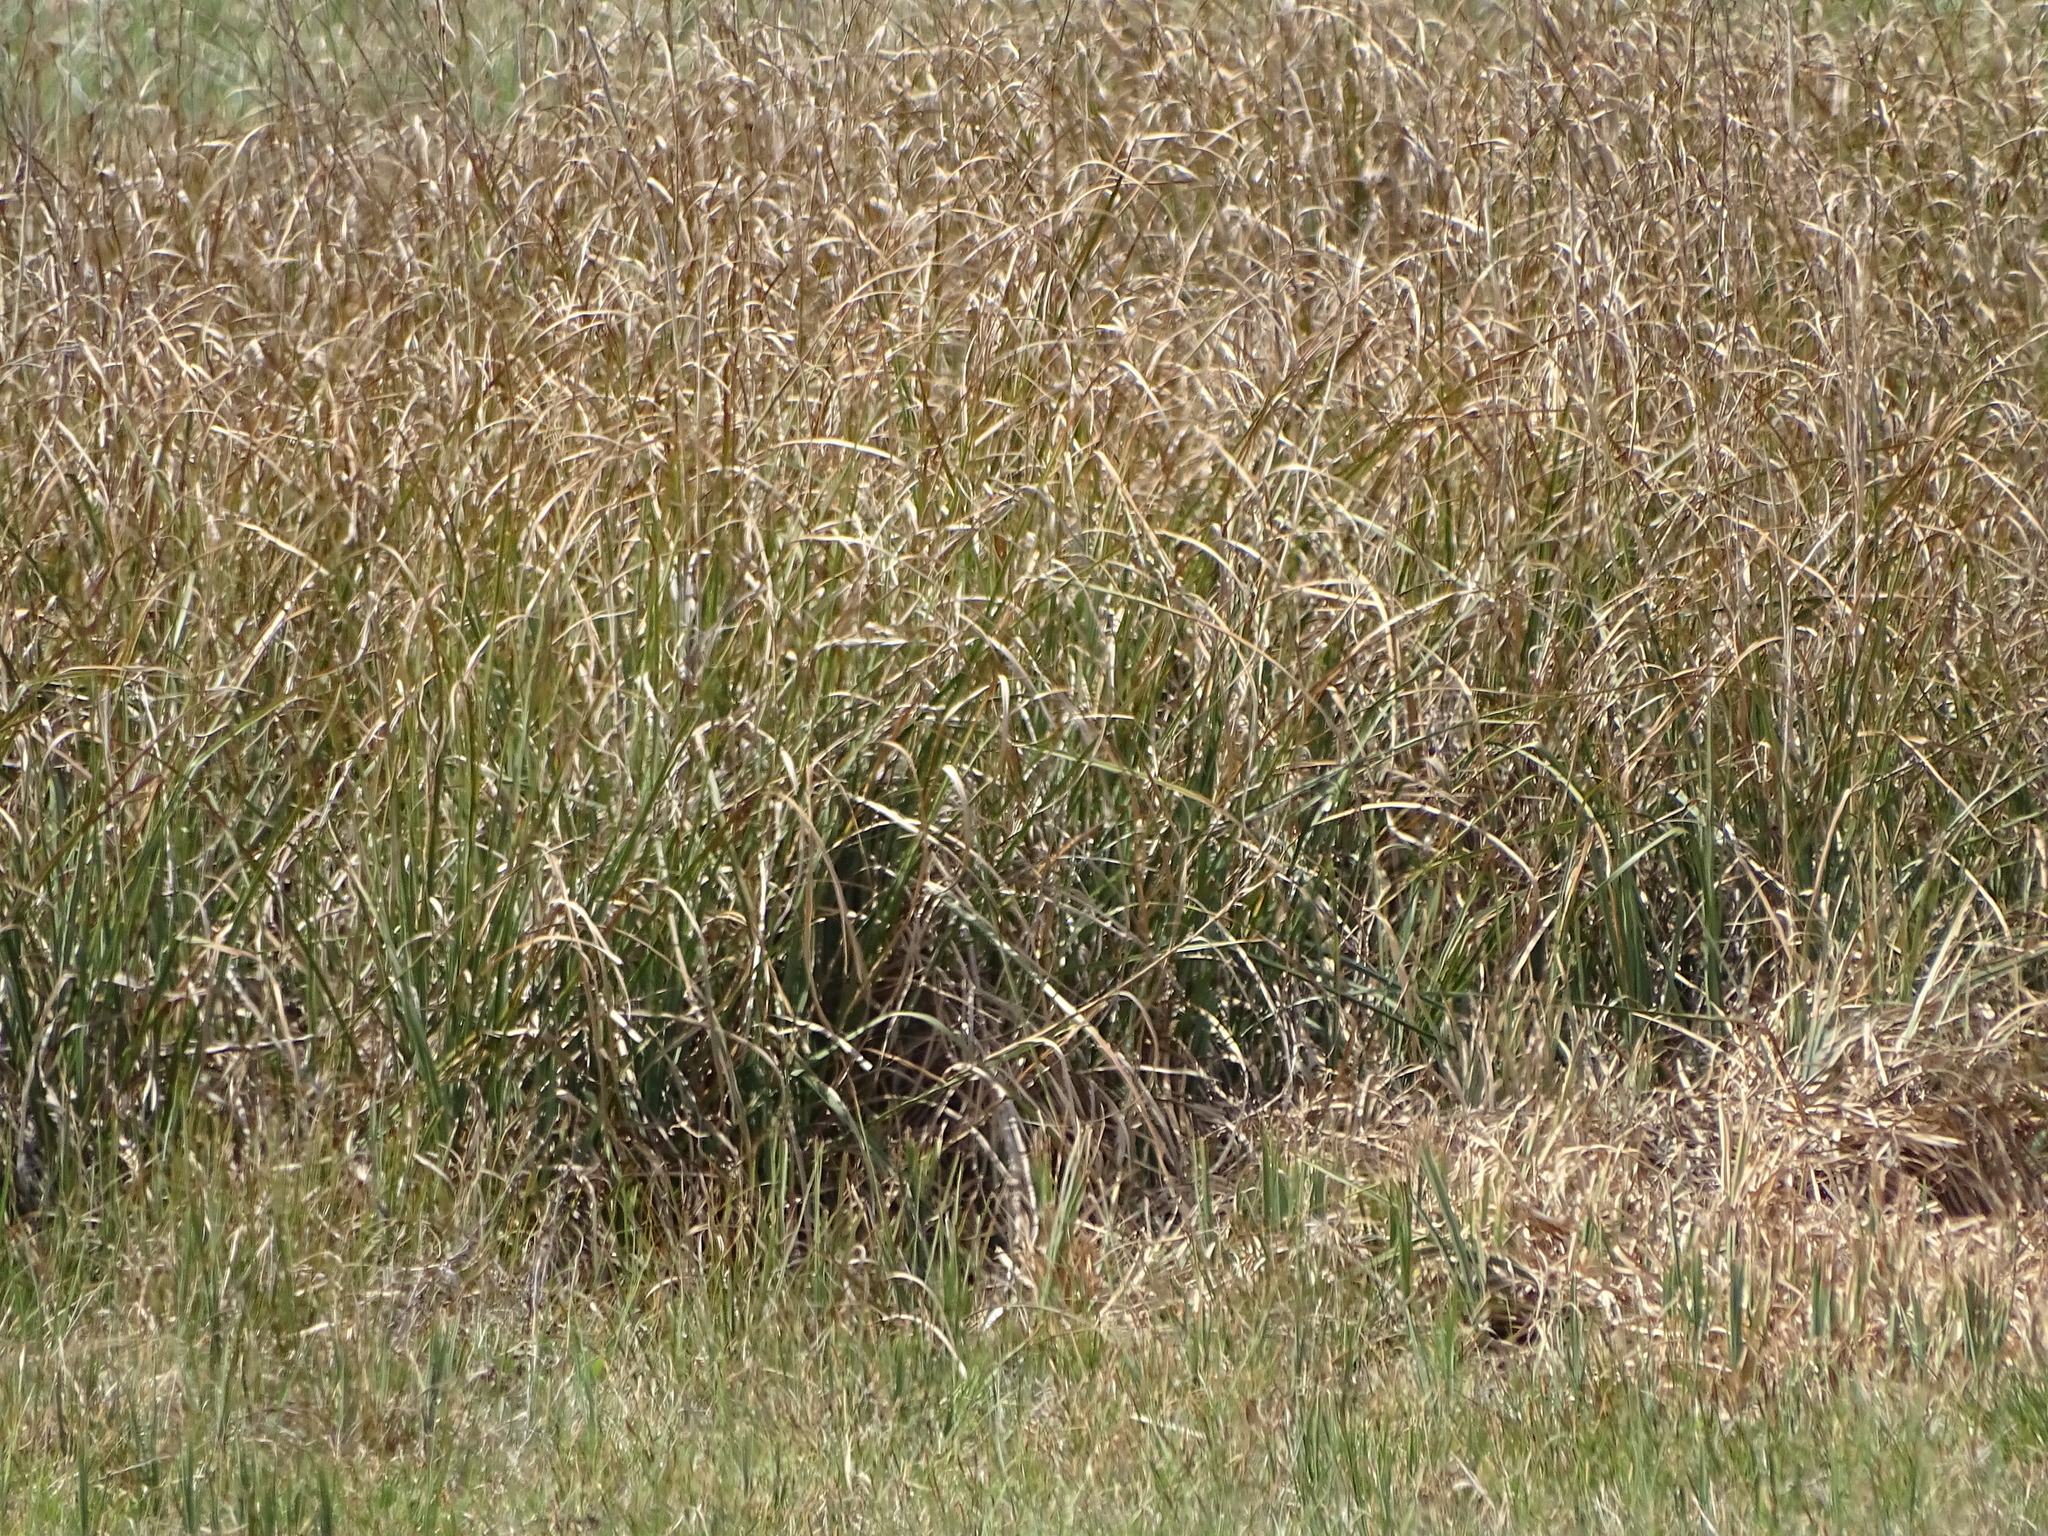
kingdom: Plantae
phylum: Tracheophyta
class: Liliopsida
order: Poales
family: Cyperaceae
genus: Cladium
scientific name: Cladium mariscus
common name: Great fen-sedge
